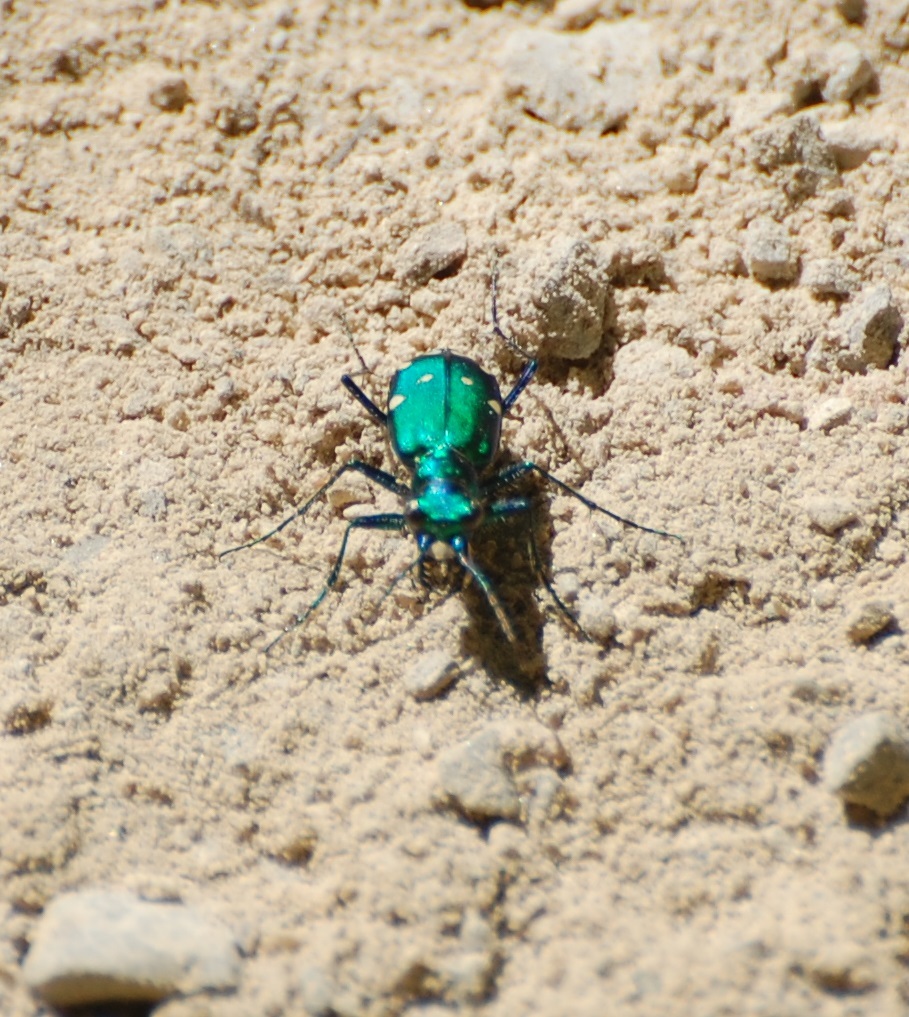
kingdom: Animalia
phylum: Arthropoda
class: Insecta
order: Coleoptera
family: Carabidae
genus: Cicindela
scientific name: Cicindela sexguttata
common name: Six-spotted tiger beetle
